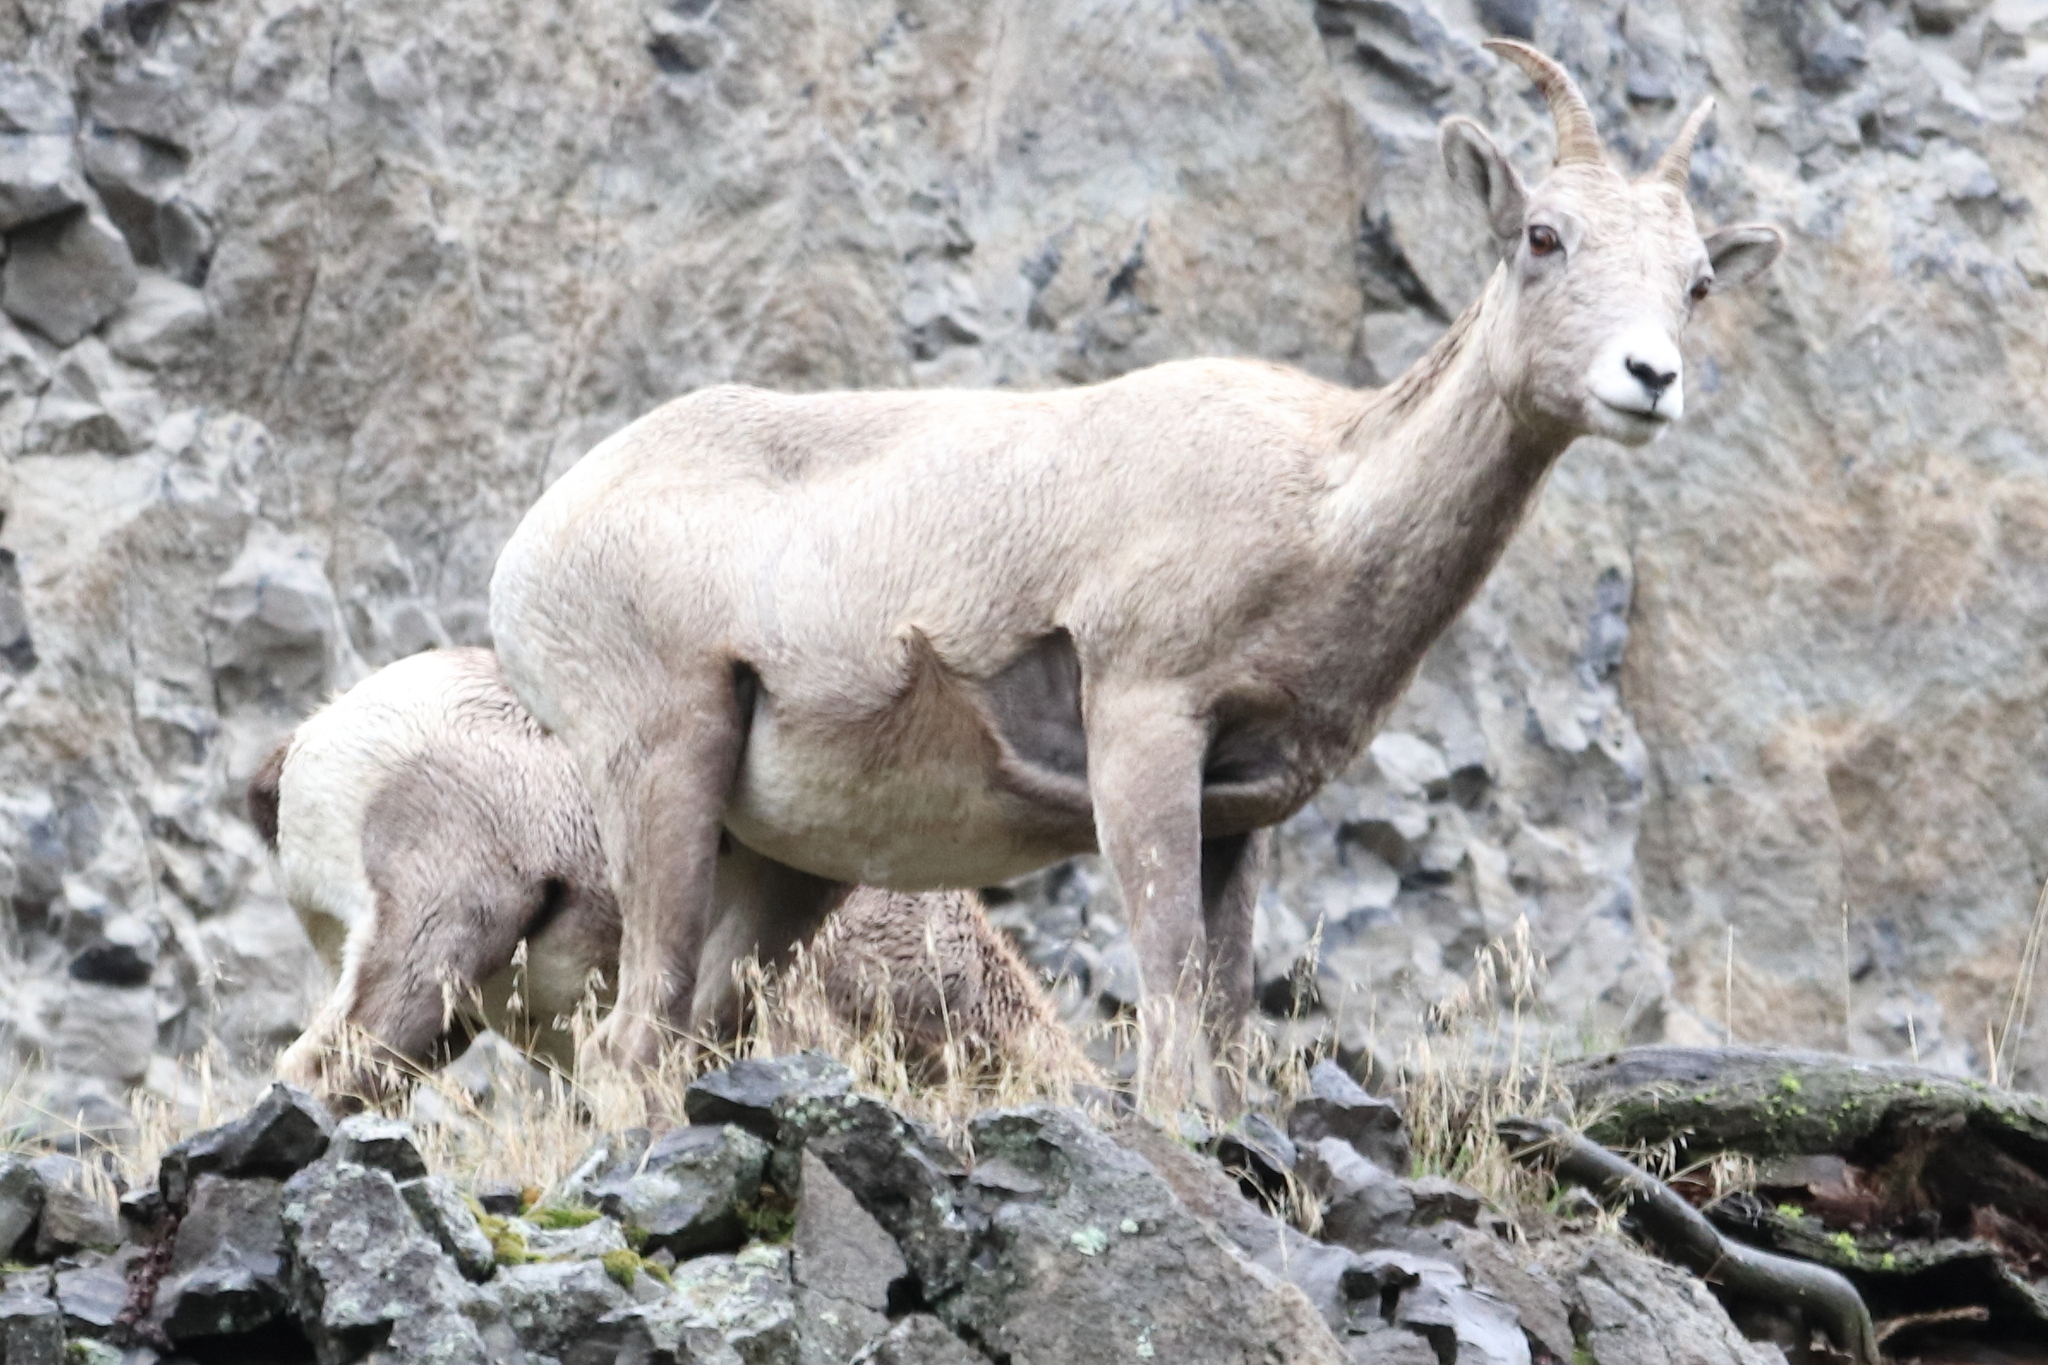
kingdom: Animalia
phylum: Chordata
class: Mammalia
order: Artiodactyla
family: Bovidae
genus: Ovis
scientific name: Ovis canadensis
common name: Bighorn sheep
